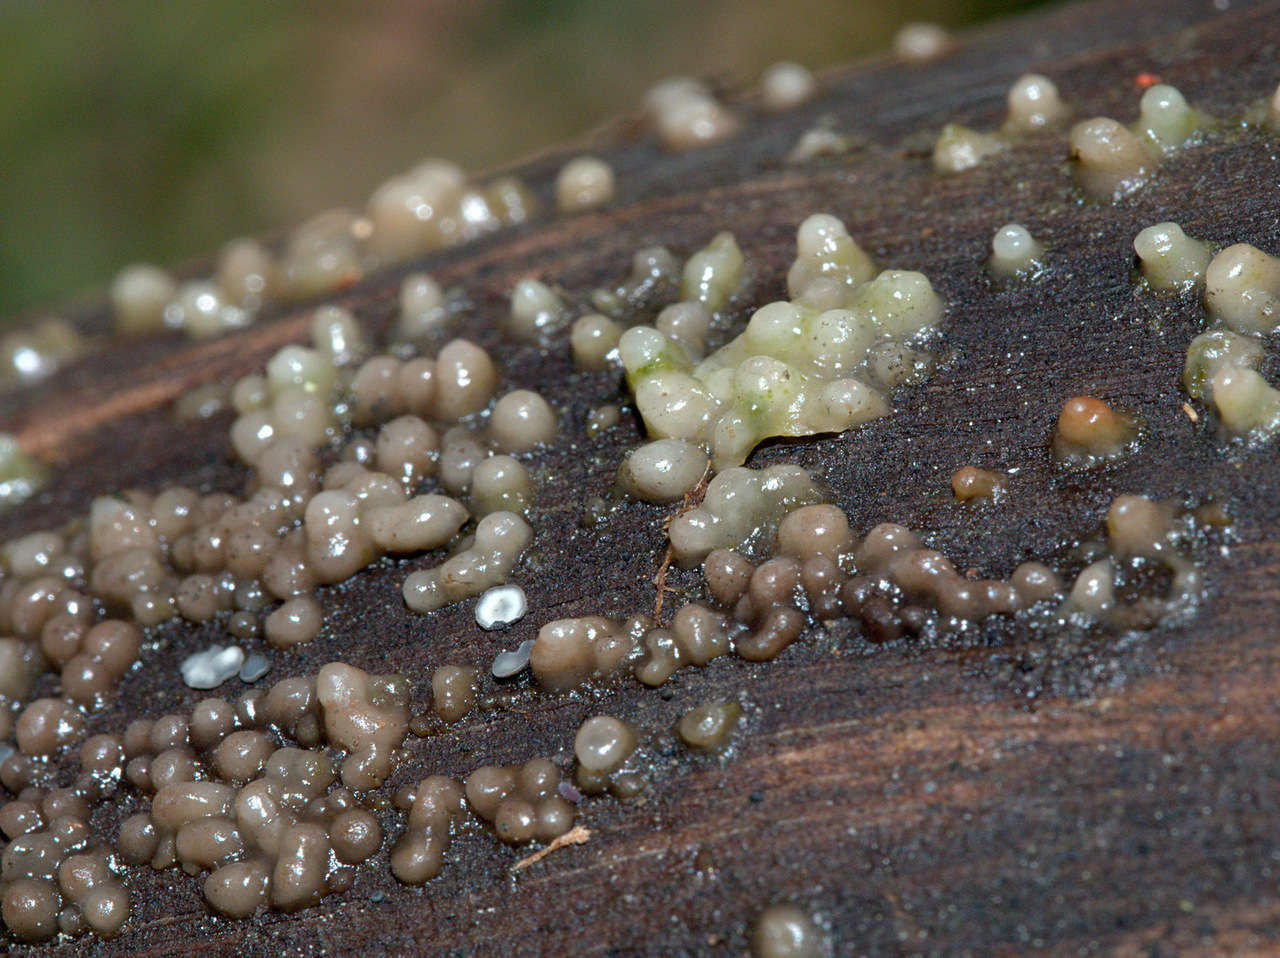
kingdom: Fungi
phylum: Basidiomycota
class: Atractiellomycetes
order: Atractiellales
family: Phleogenaceae
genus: Helicogloea
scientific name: Helicogloea compressa
